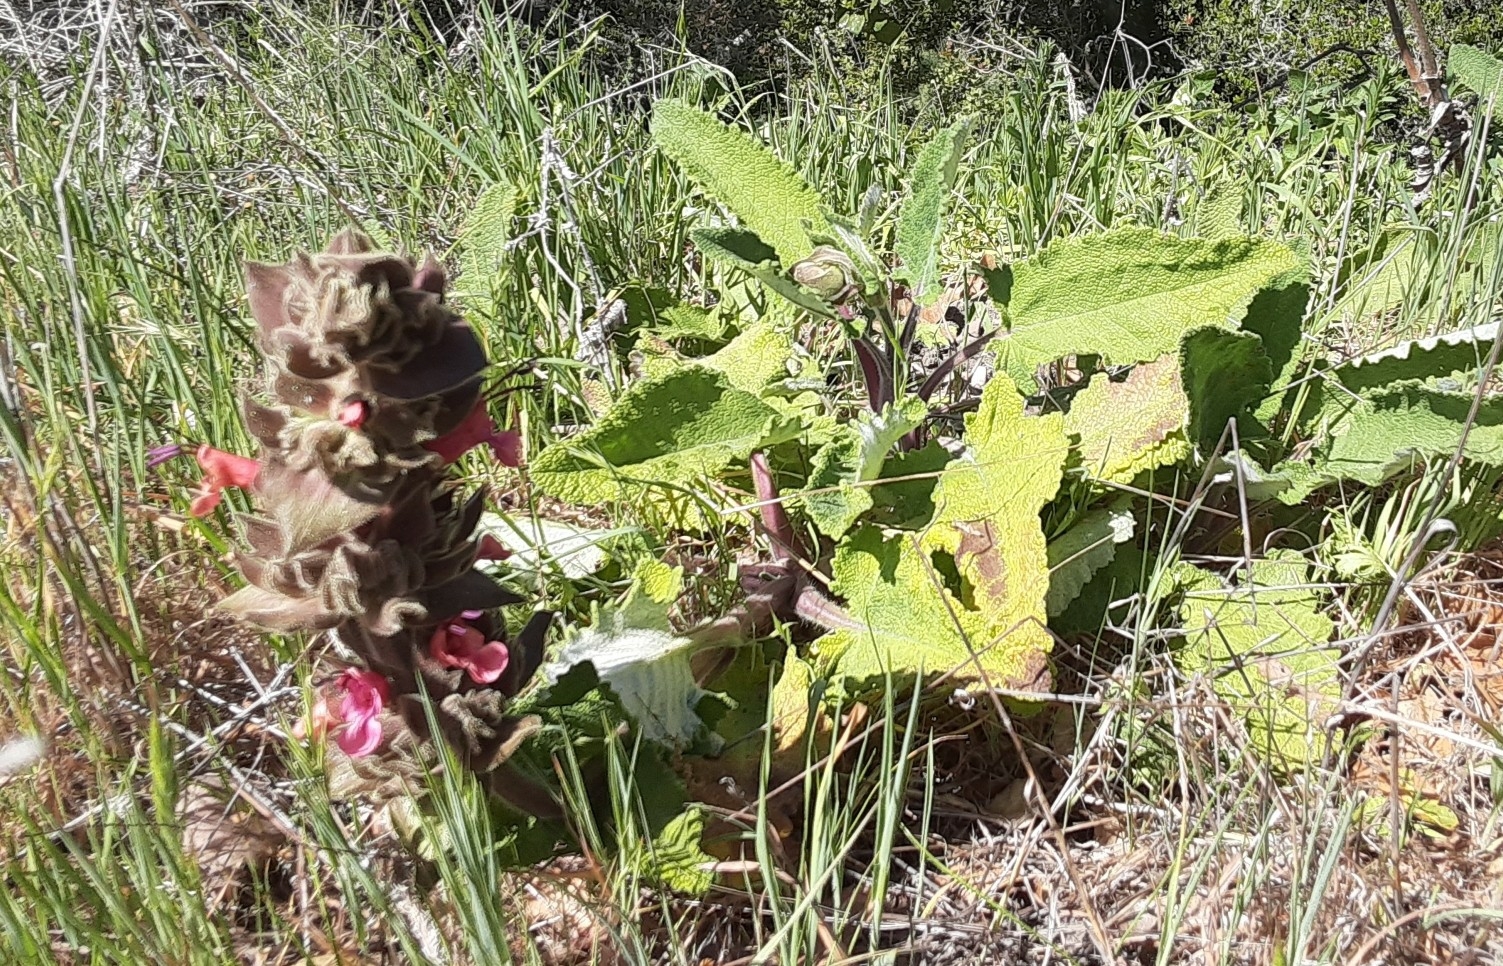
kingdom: Plantae
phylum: Tracheophyta
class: Magnoliopsida
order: Lamiales
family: Lamiaceae
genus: Salvia
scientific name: Salvia spathacea
